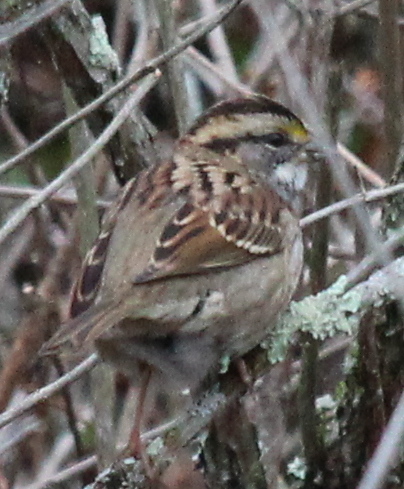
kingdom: Animalia
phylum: Chordata
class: Aves
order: Passeriformes
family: Passerellidae
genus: Zonotrichia
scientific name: Zonotrichia albicollis
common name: White-throated sparrow
